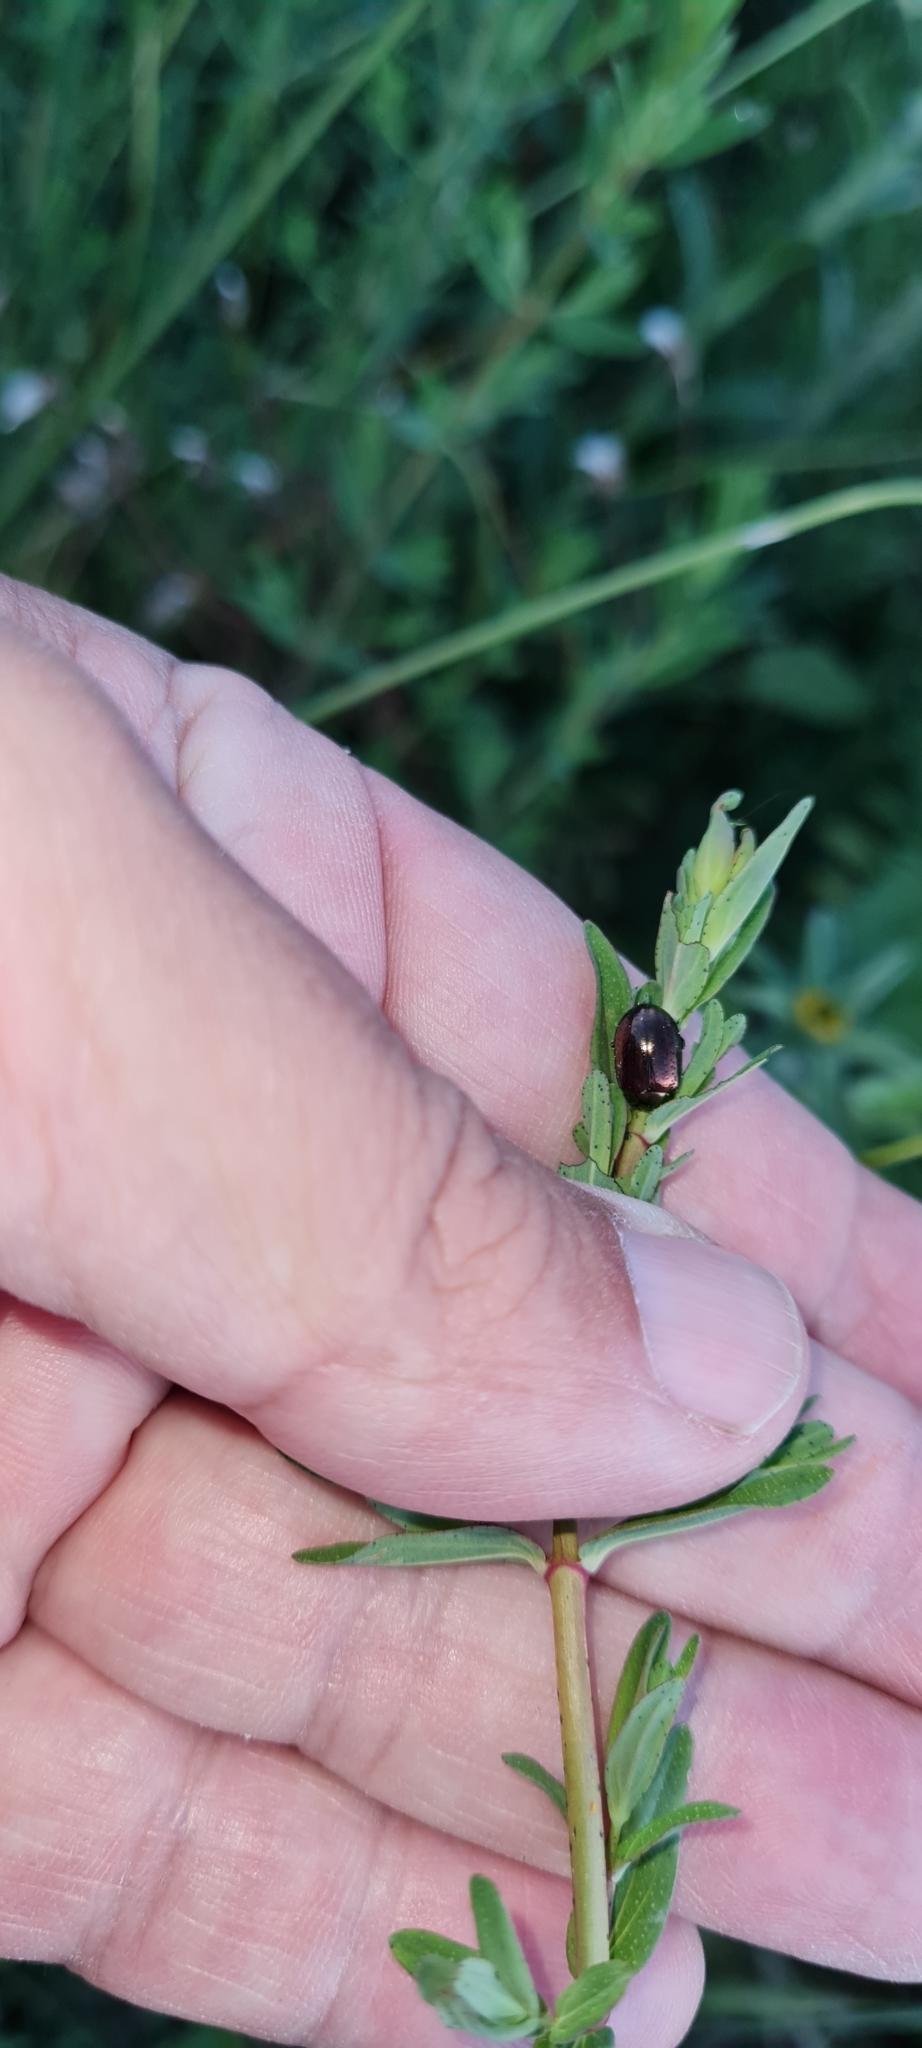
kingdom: Animalia
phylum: Arthropoda
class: Insecta
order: Coleoptera
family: Chrysomelidae
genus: Chrysolina
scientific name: Chrysolina bankii
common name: Leaf beetle
